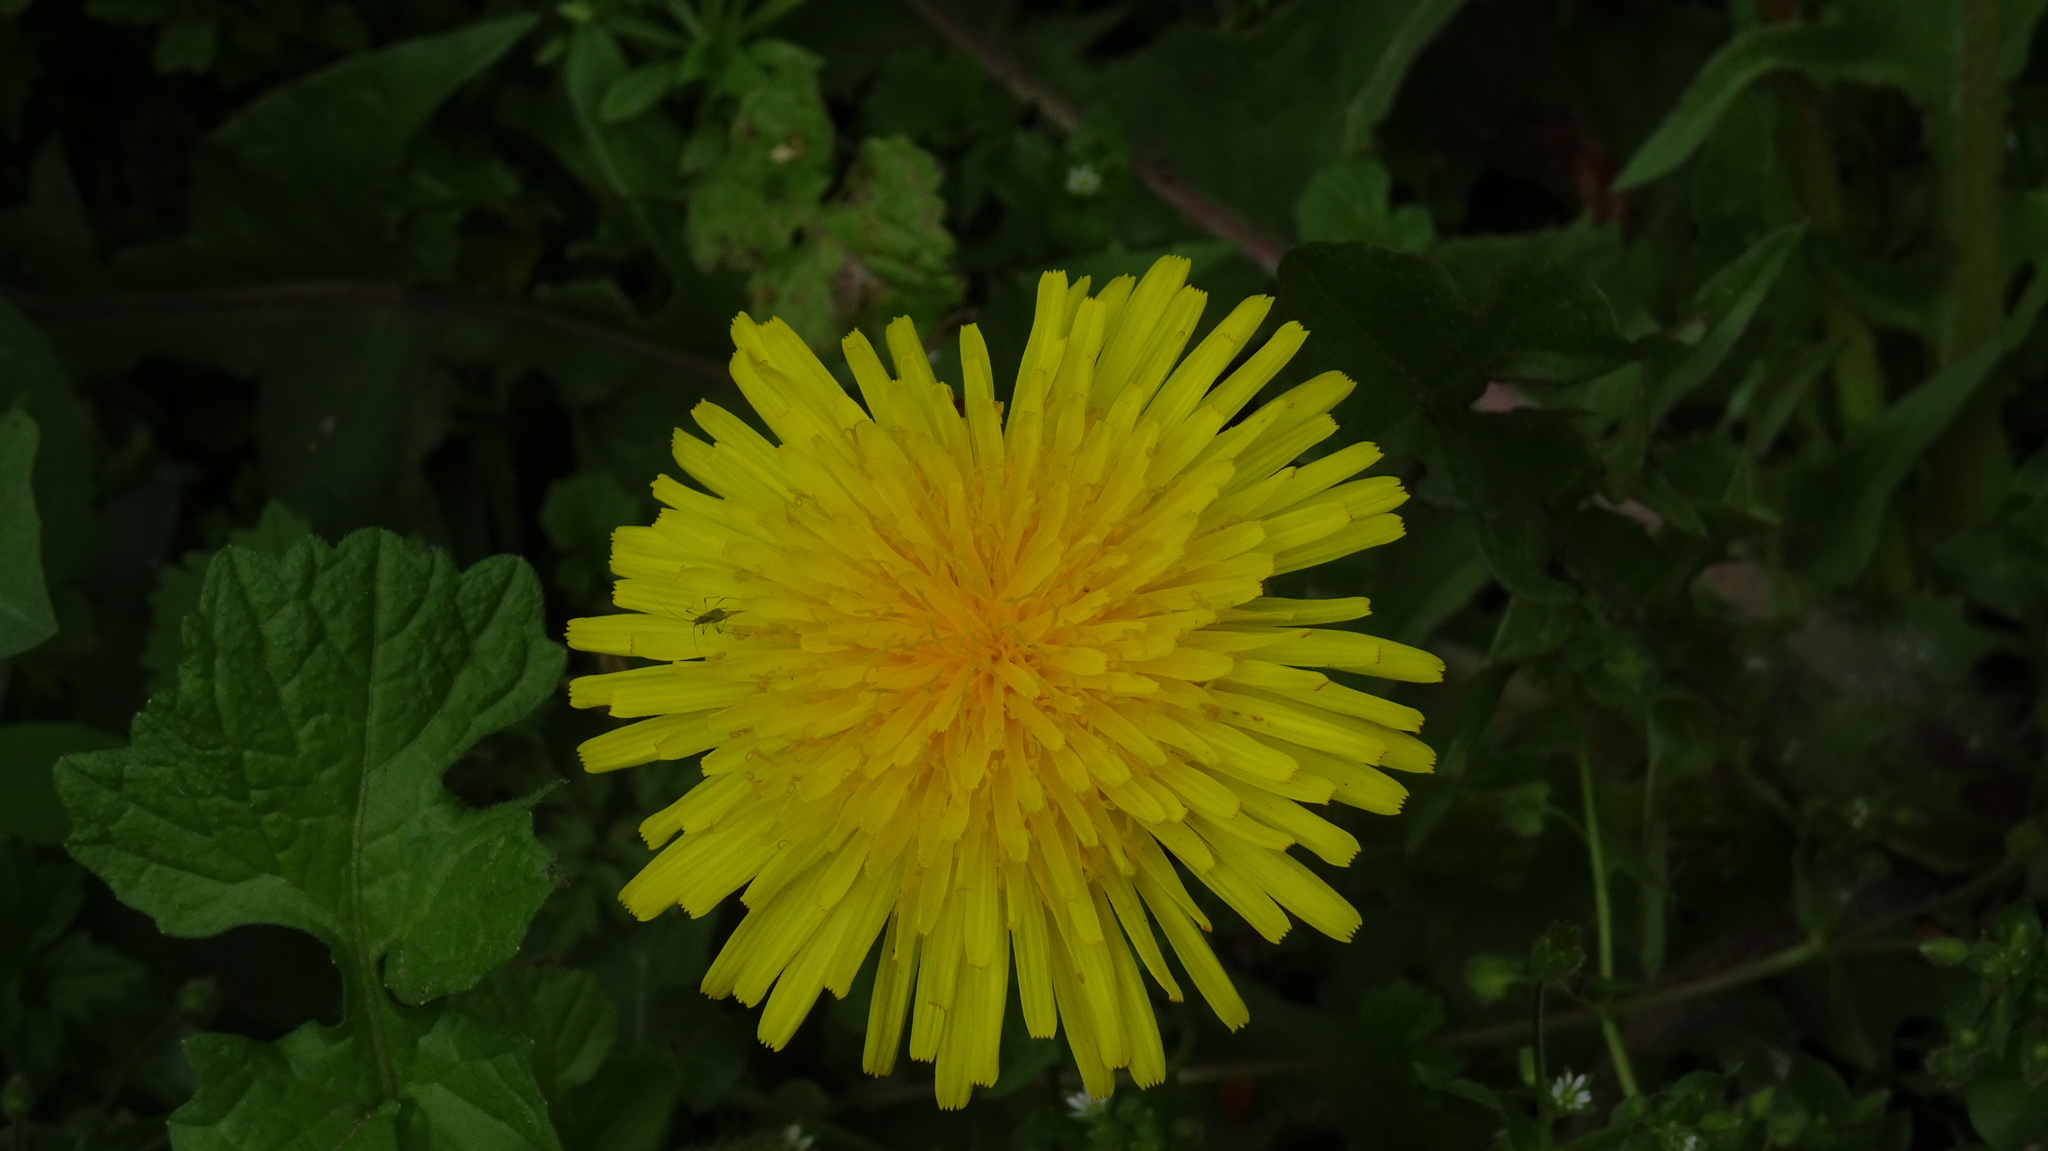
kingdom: Plantae
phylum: Tracheophyta
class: Magnoliopsida
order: Asterales
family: Asteraceae
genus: Taraxacum
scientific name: Taraxacum officinale
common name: Common dandelion
